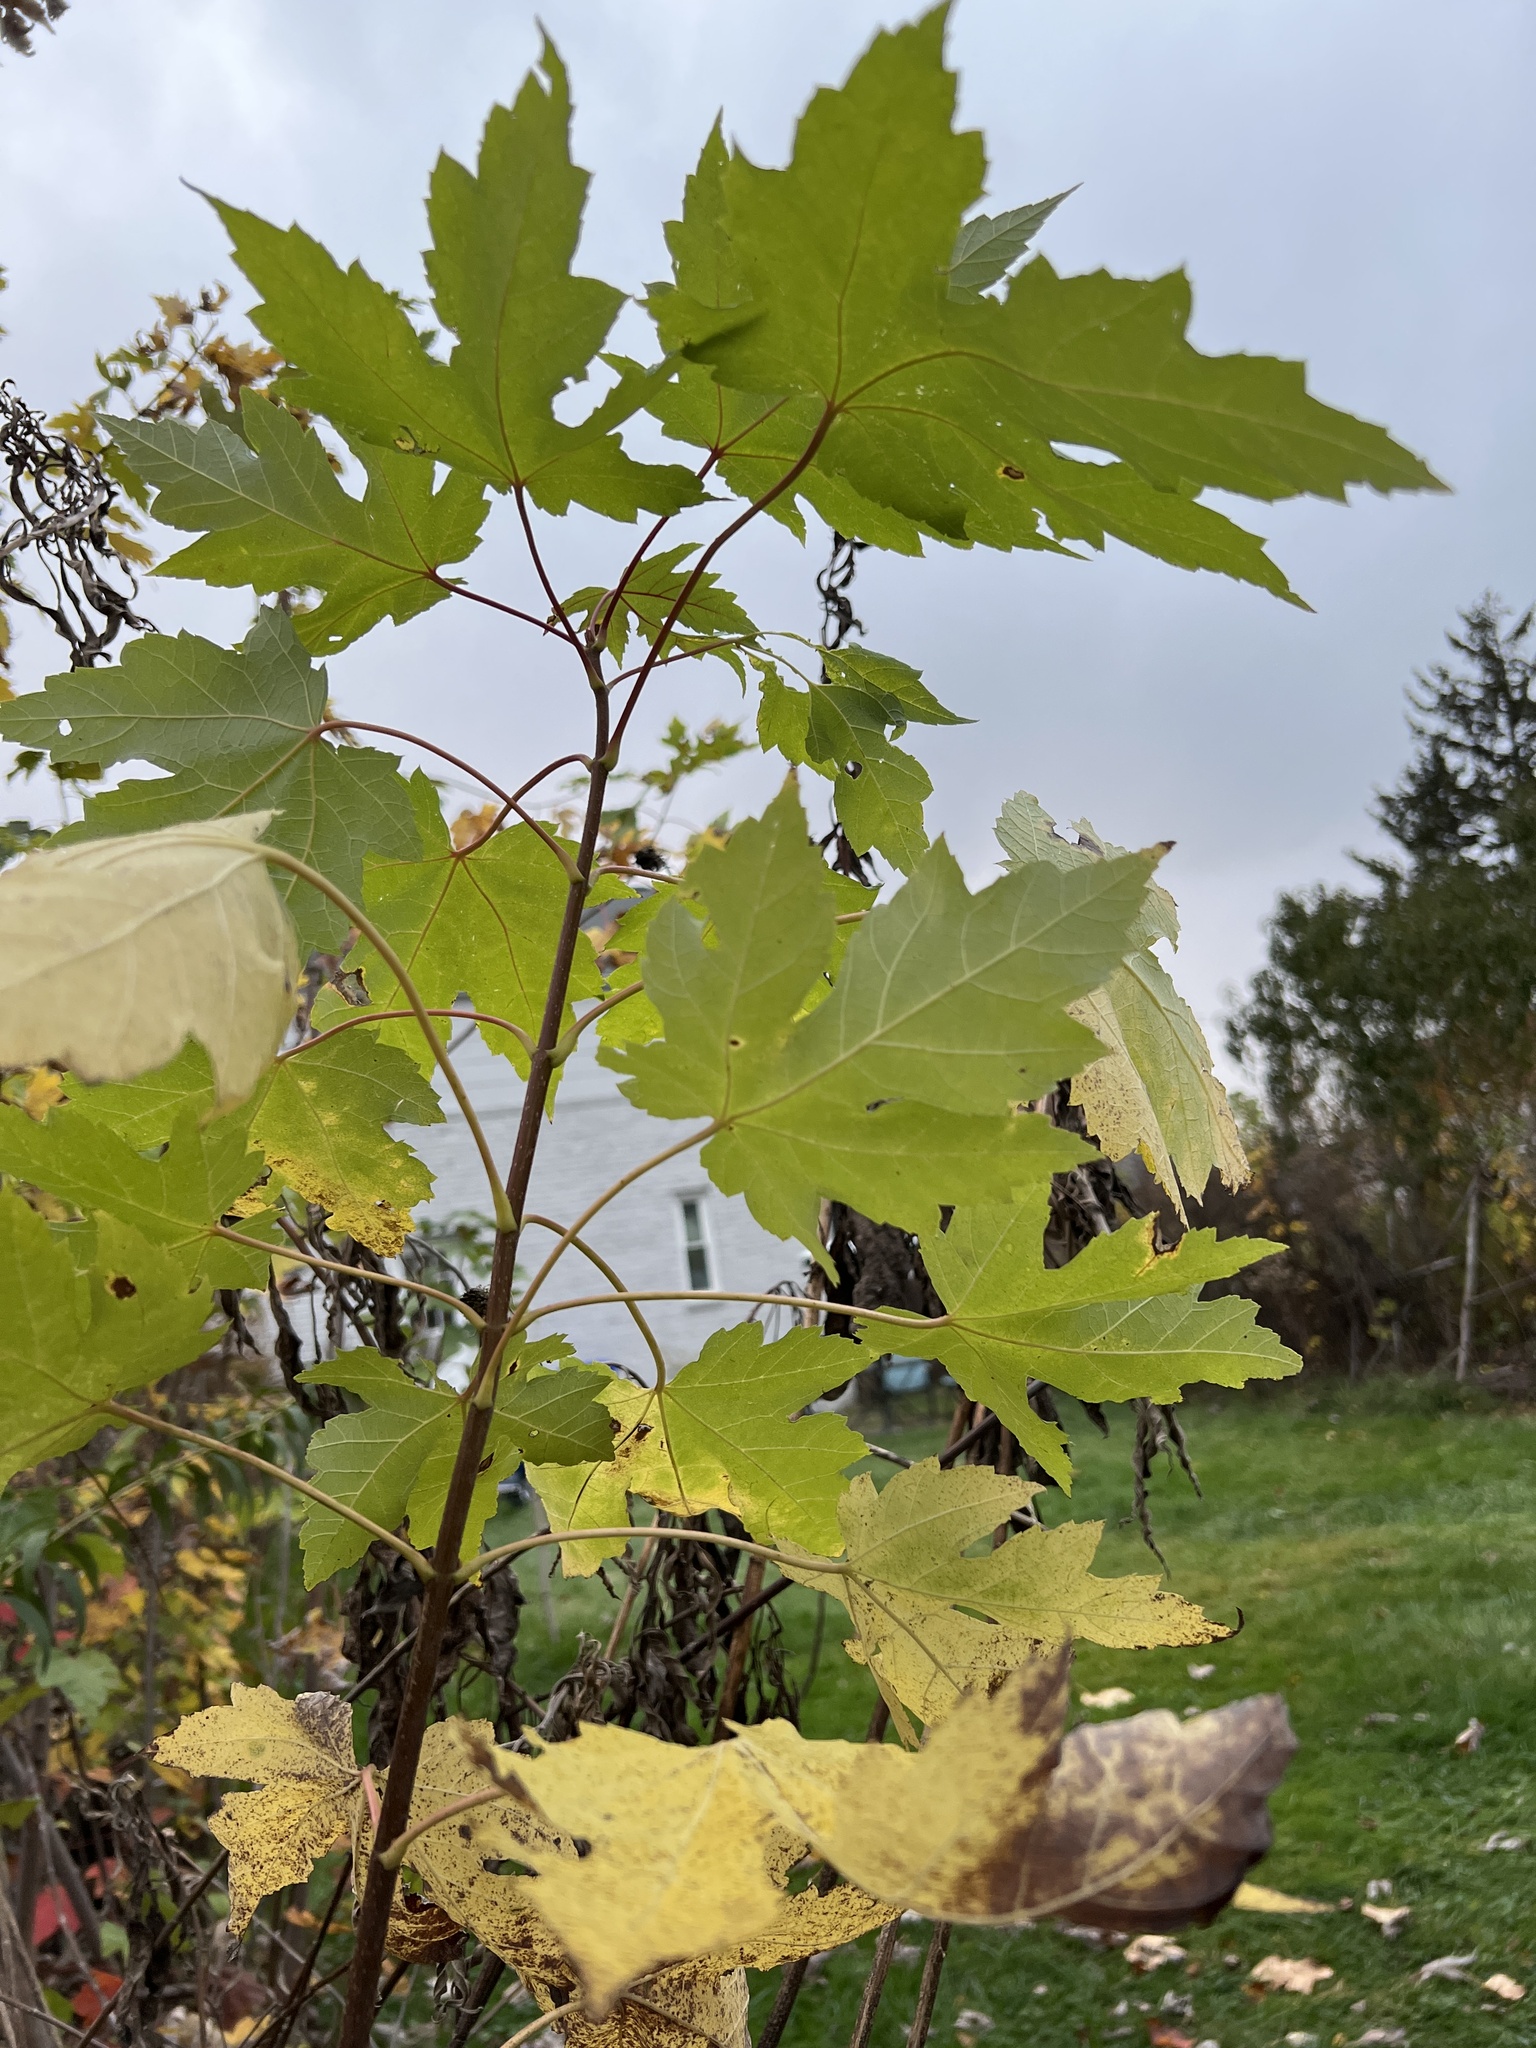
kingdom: Plantae
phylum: Tracheophyta
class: Magnoliopsida
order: Sapindales
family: Sapindaceae
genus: Acer
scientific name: Acer saccharinum
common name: Silver maple
